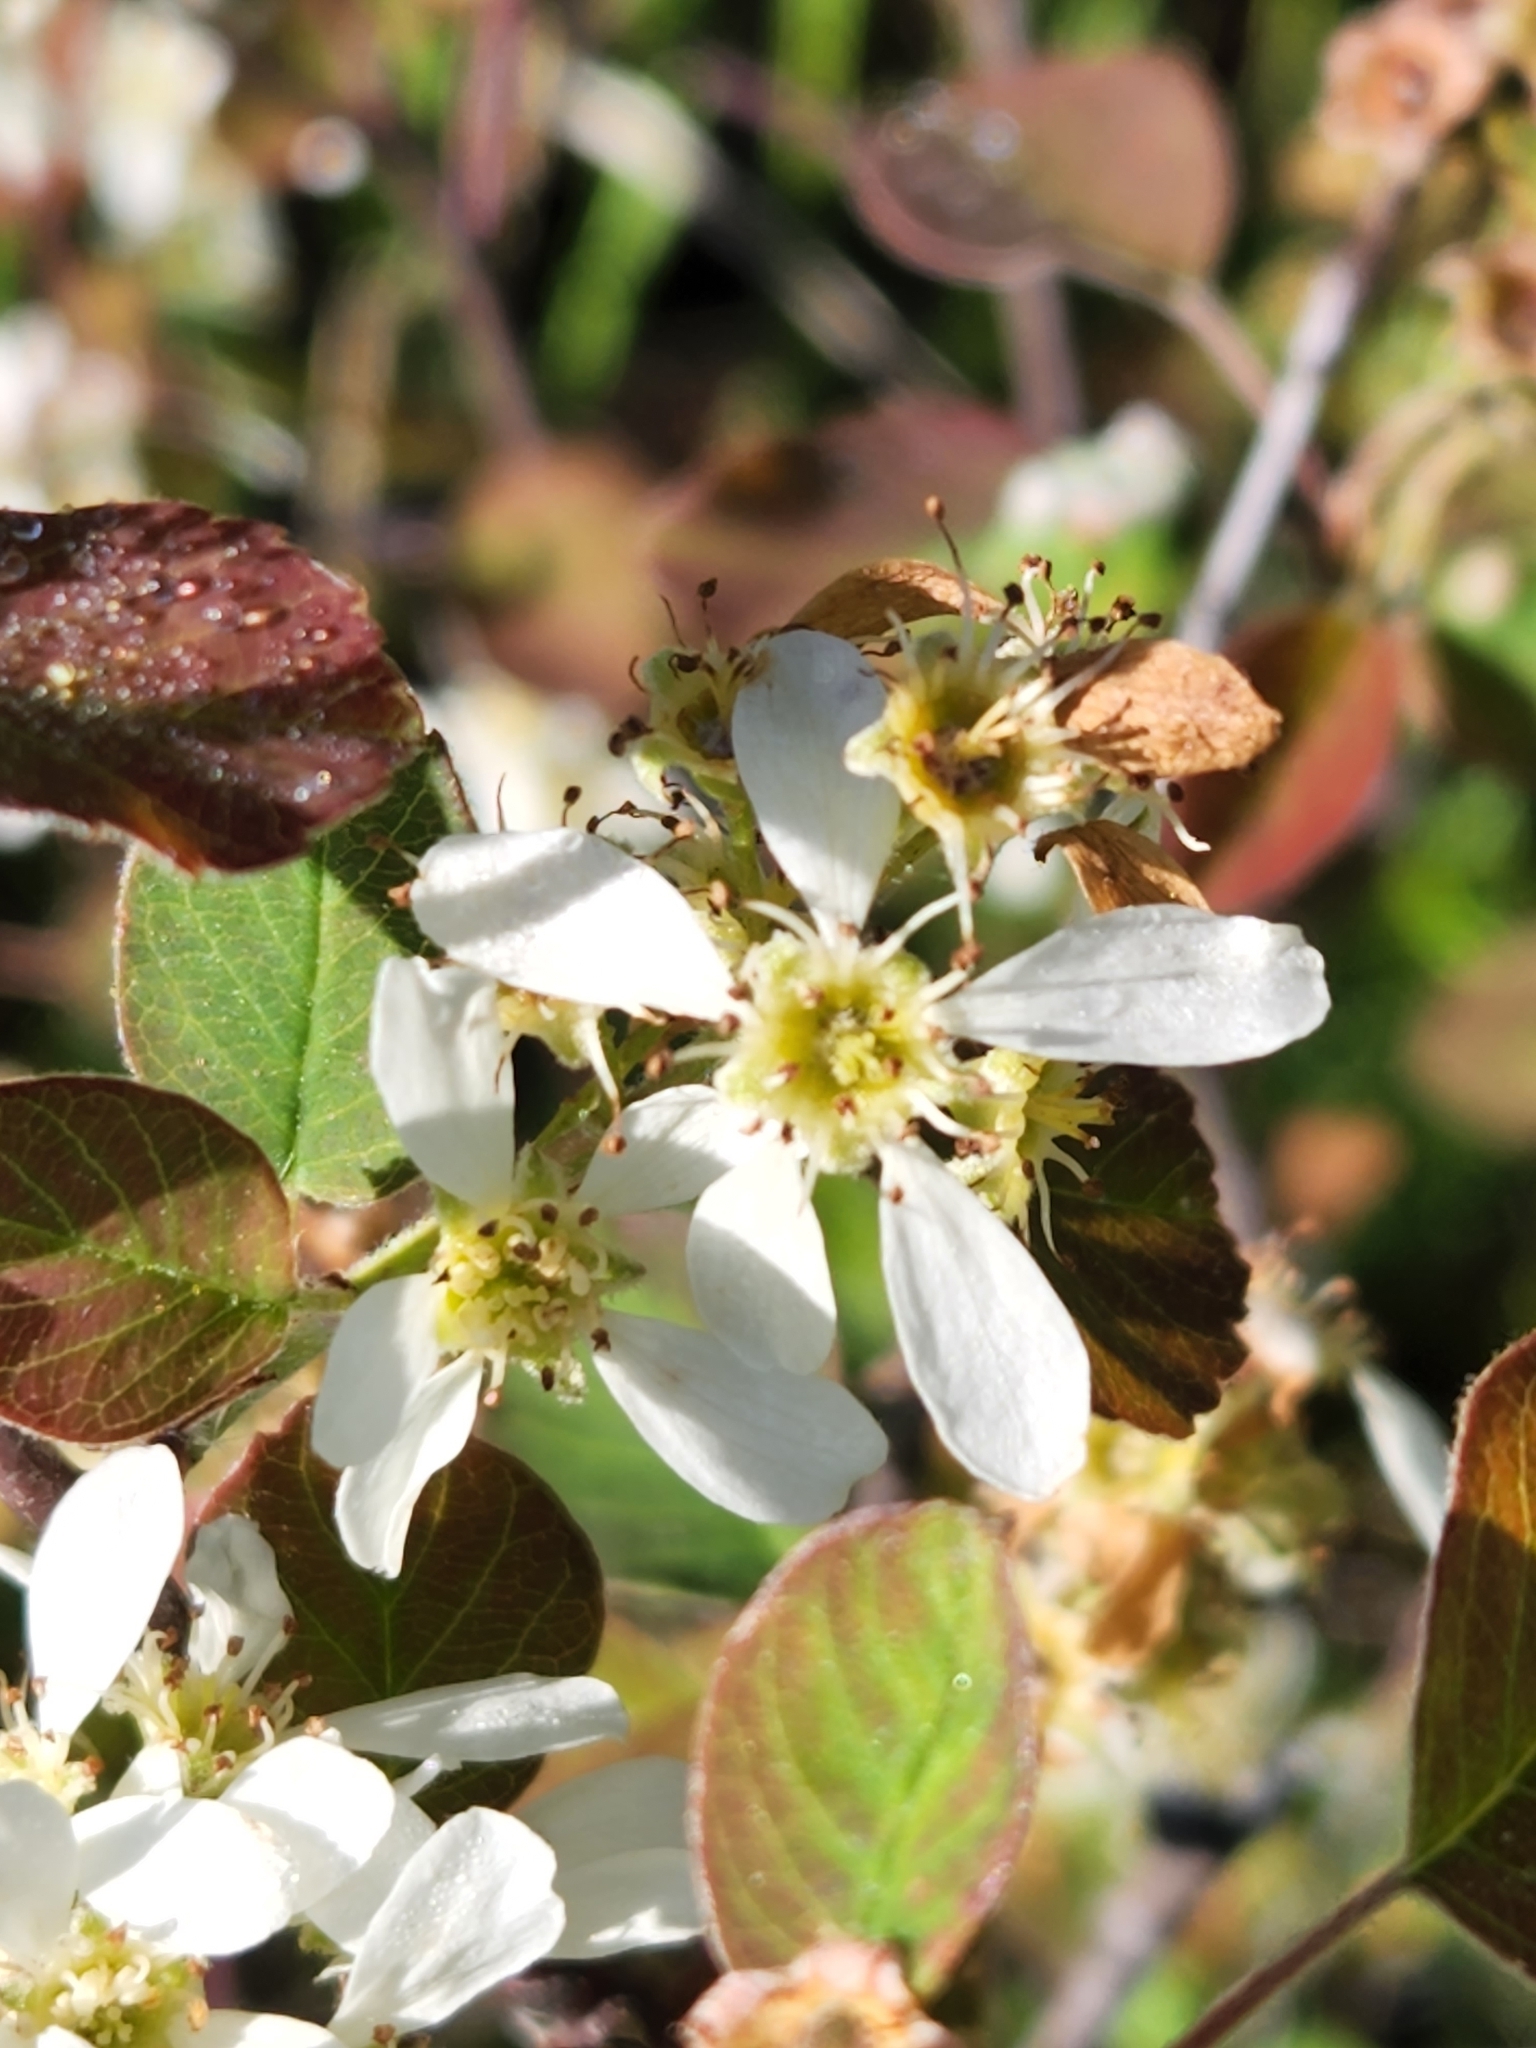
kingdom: Plantae
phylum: Tracheophyta
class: Magnoliopsida
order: Rosales
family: Rosaceae
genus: Amelanchier
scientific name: Amelanchier alnifolia
